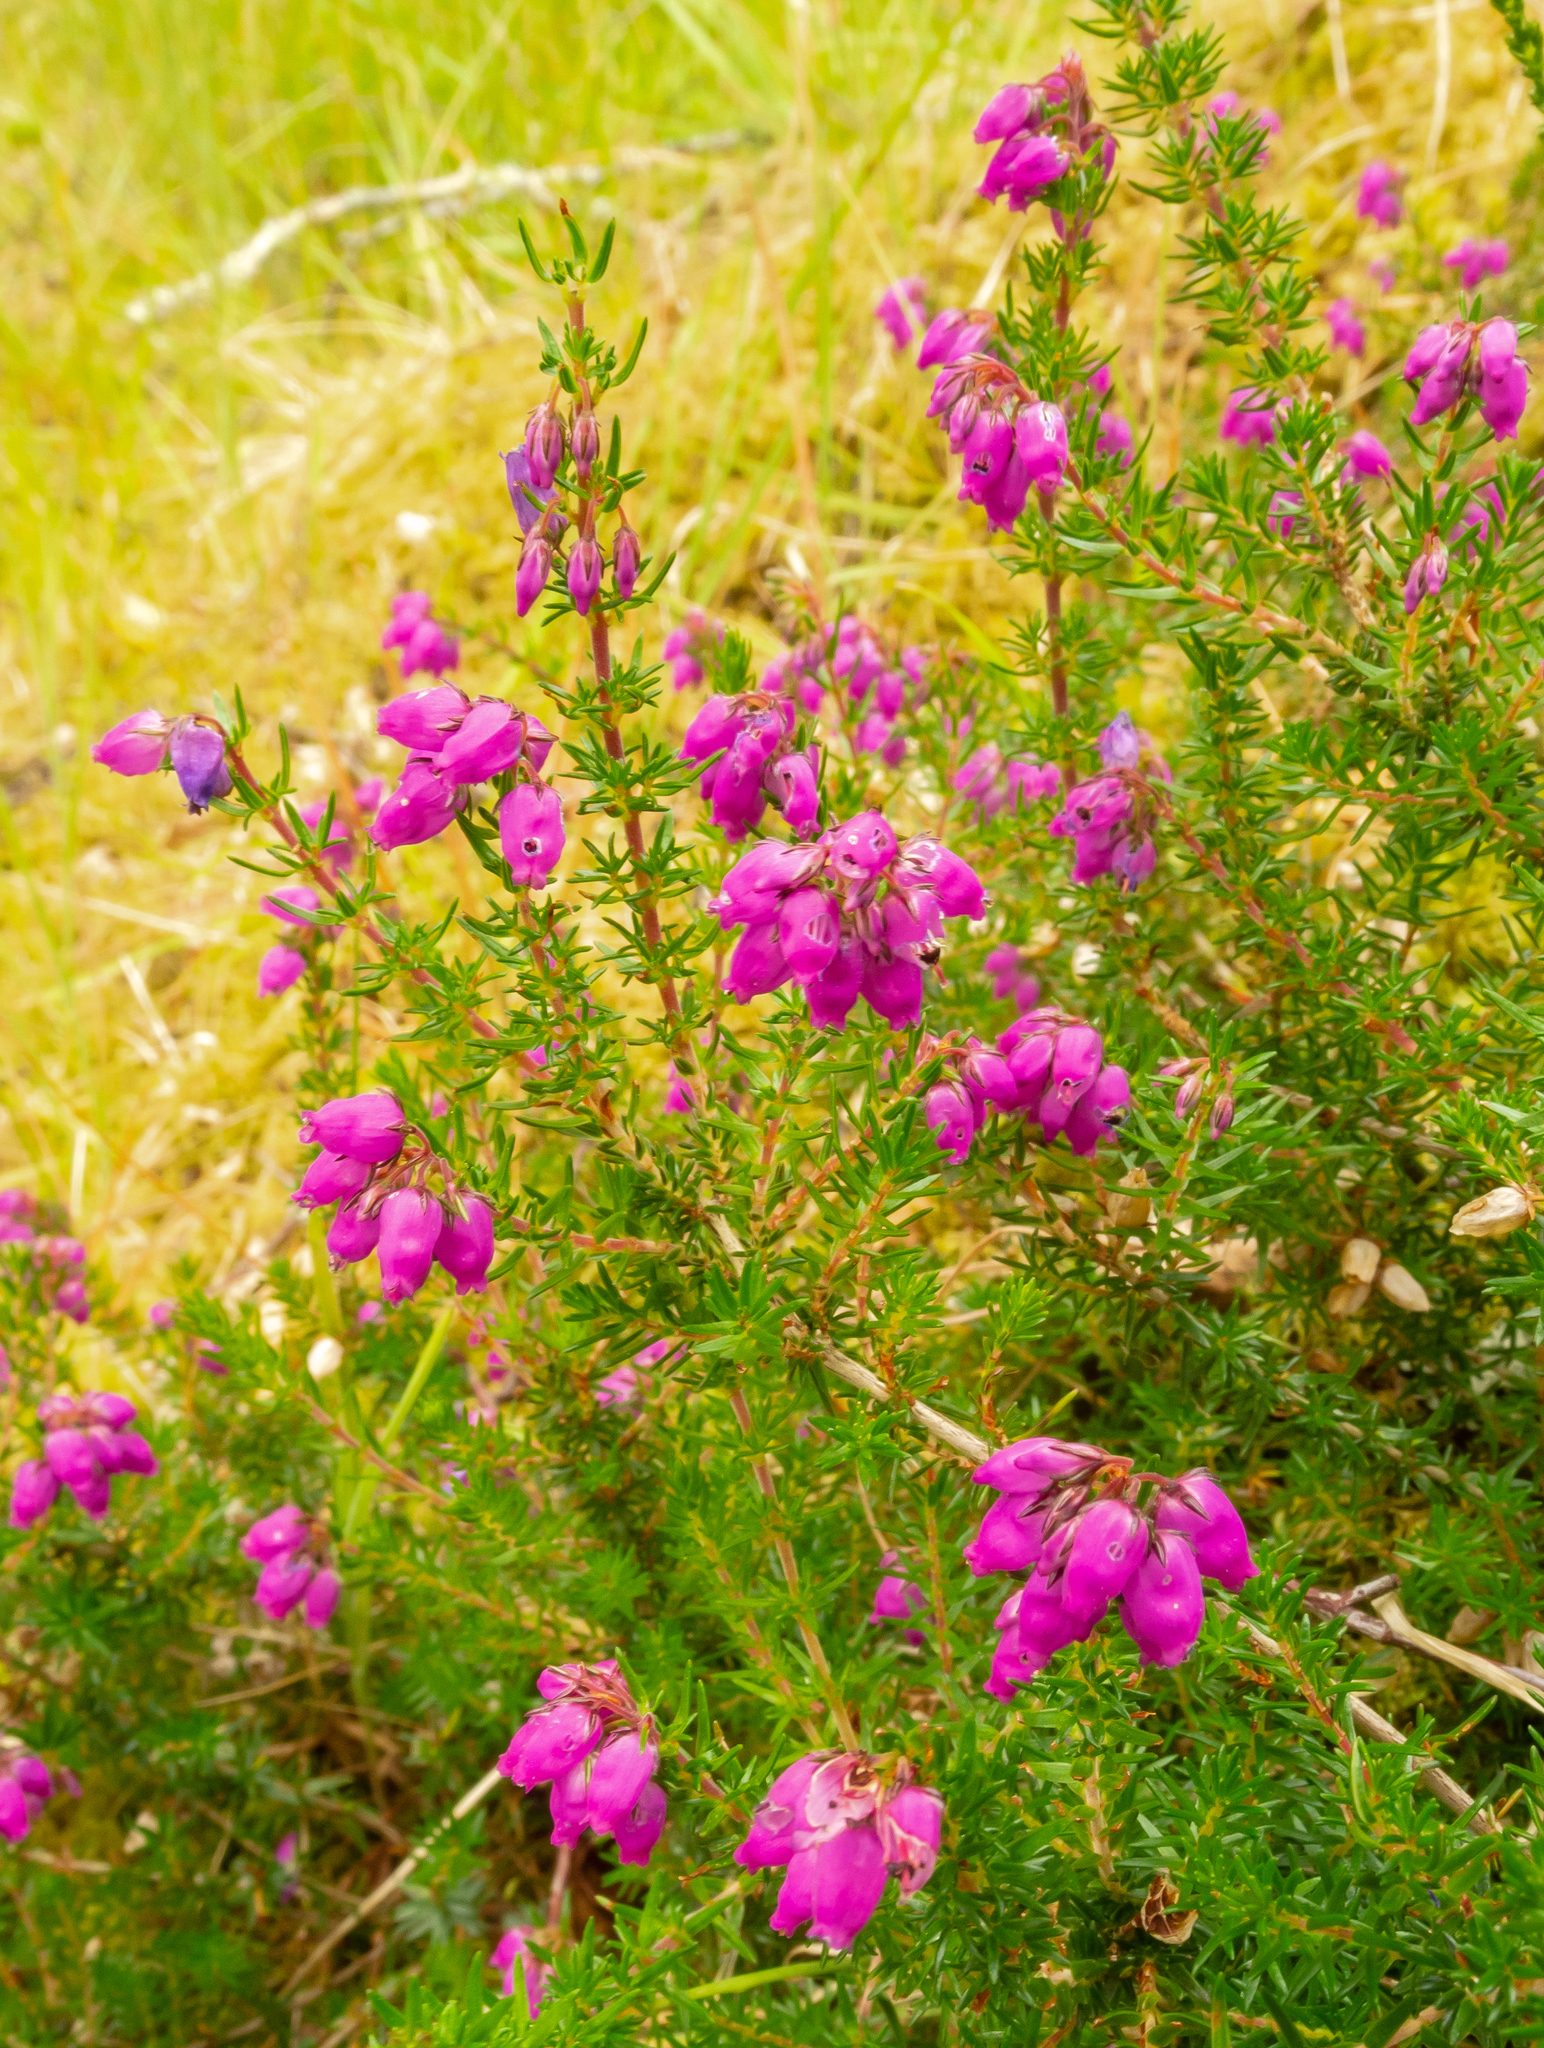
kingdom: Plantae
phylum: Tracheophyta
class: Magnoliopsida
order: Ericales
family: Ericaceae
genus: Erica
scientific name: Erica cinerea
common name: Bell heather
